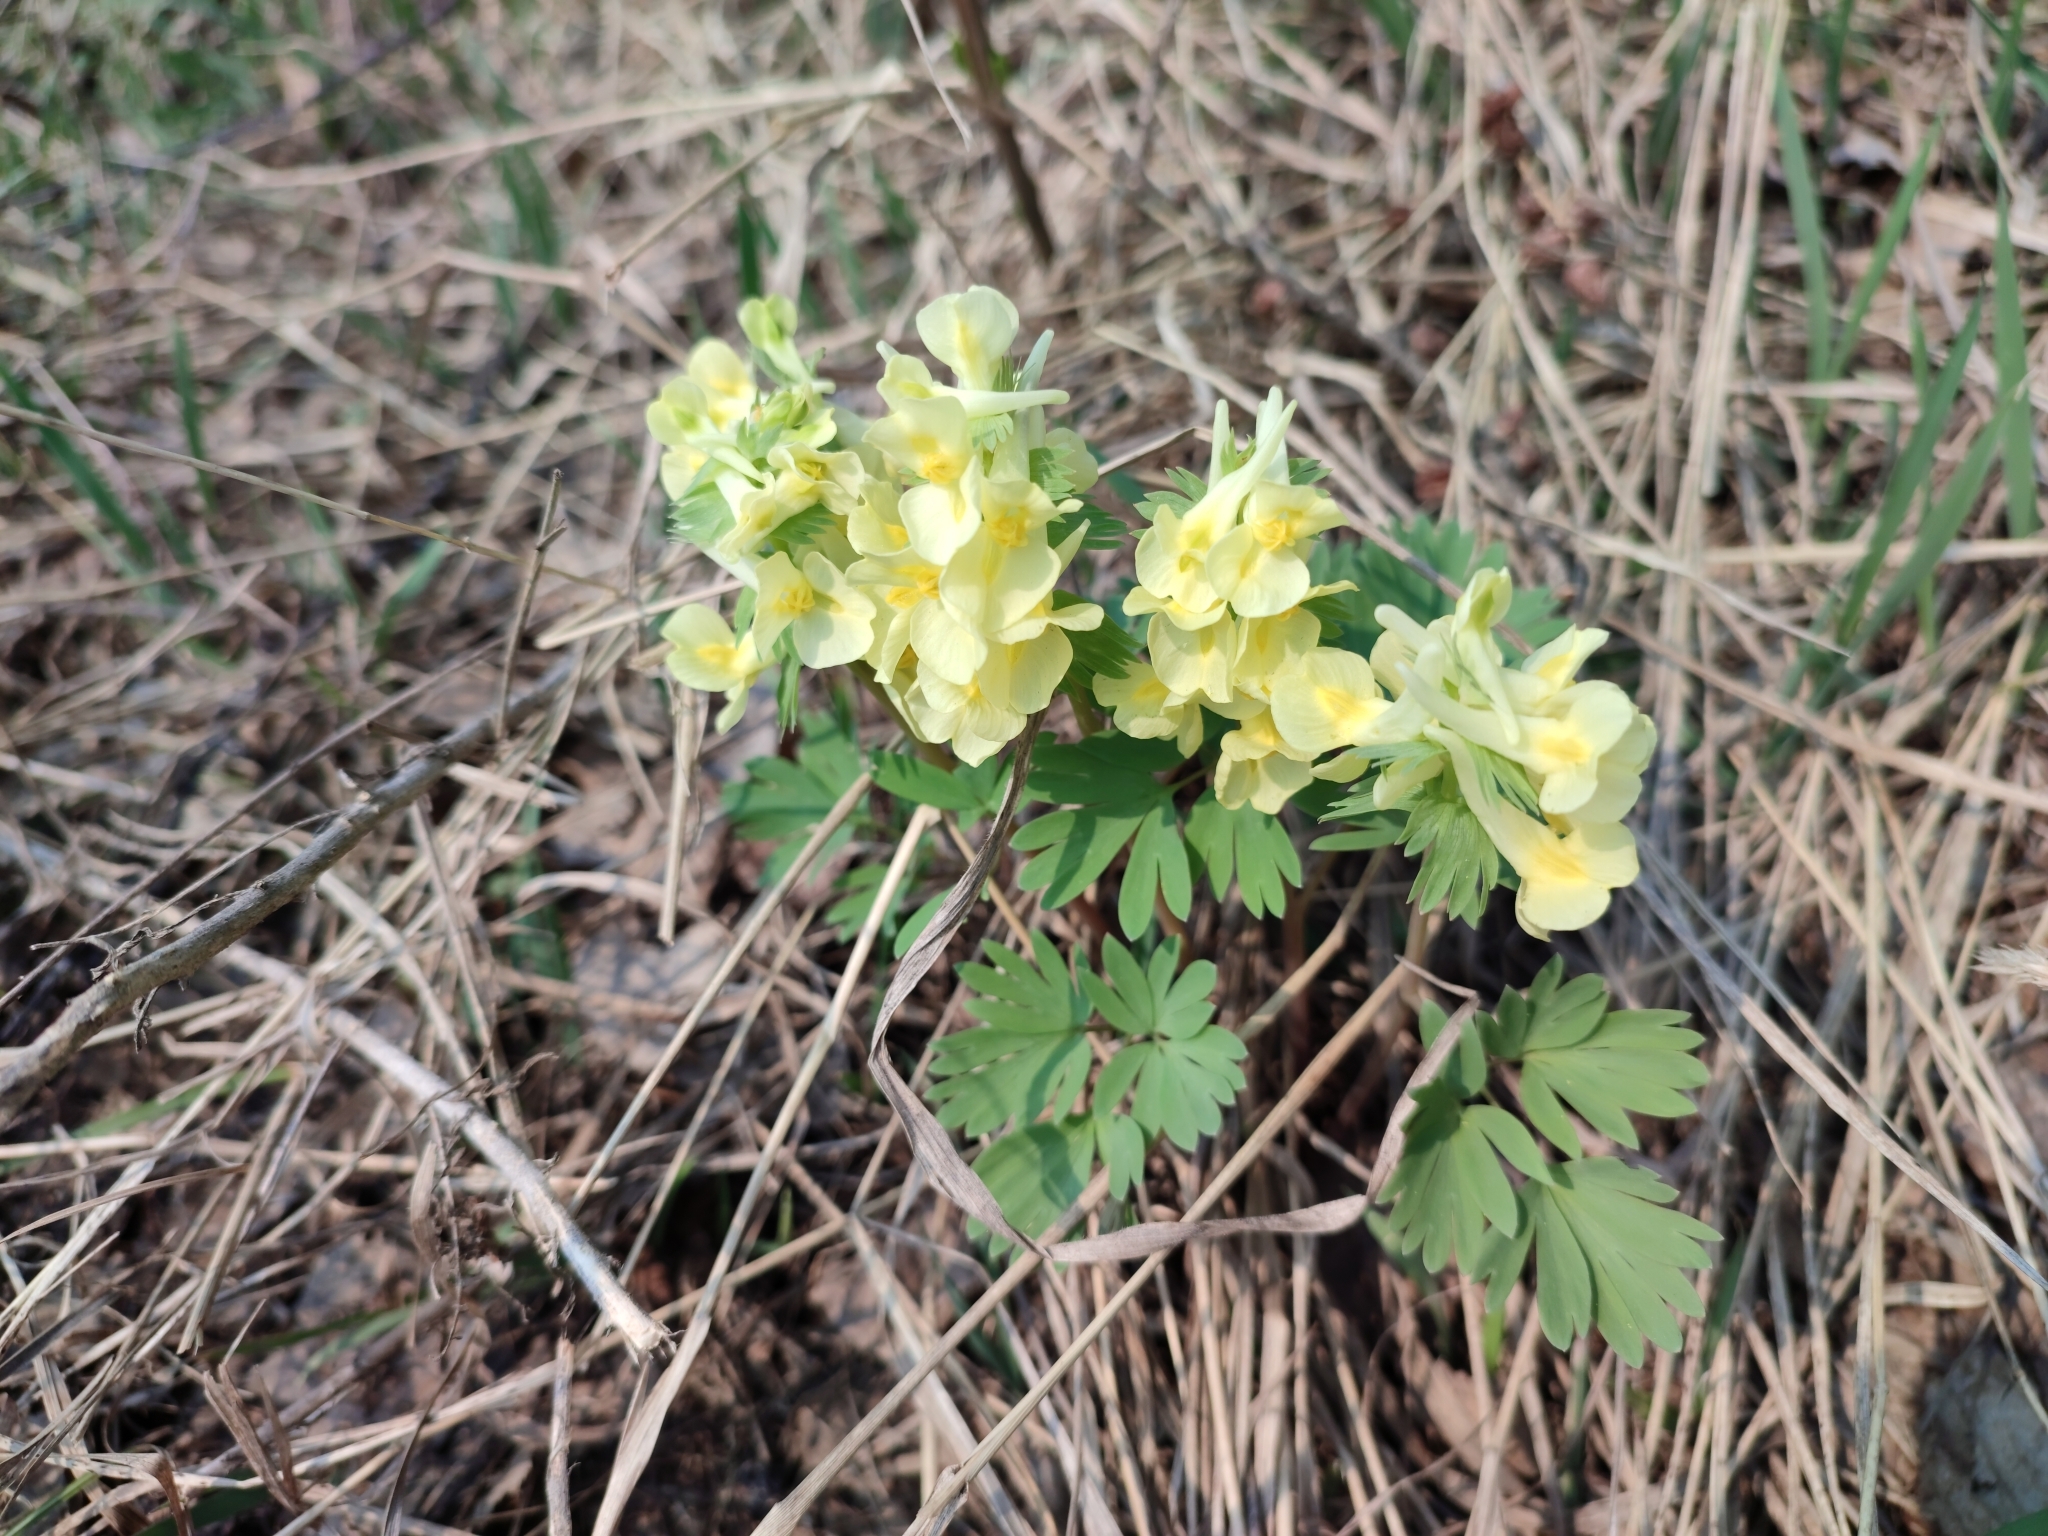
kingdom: Plantae
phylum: Tracheophyta
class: Magnoliopsida
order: Ranunculales
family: Papaveraceae
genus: Corydalis
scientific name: Corydalis bracteata
